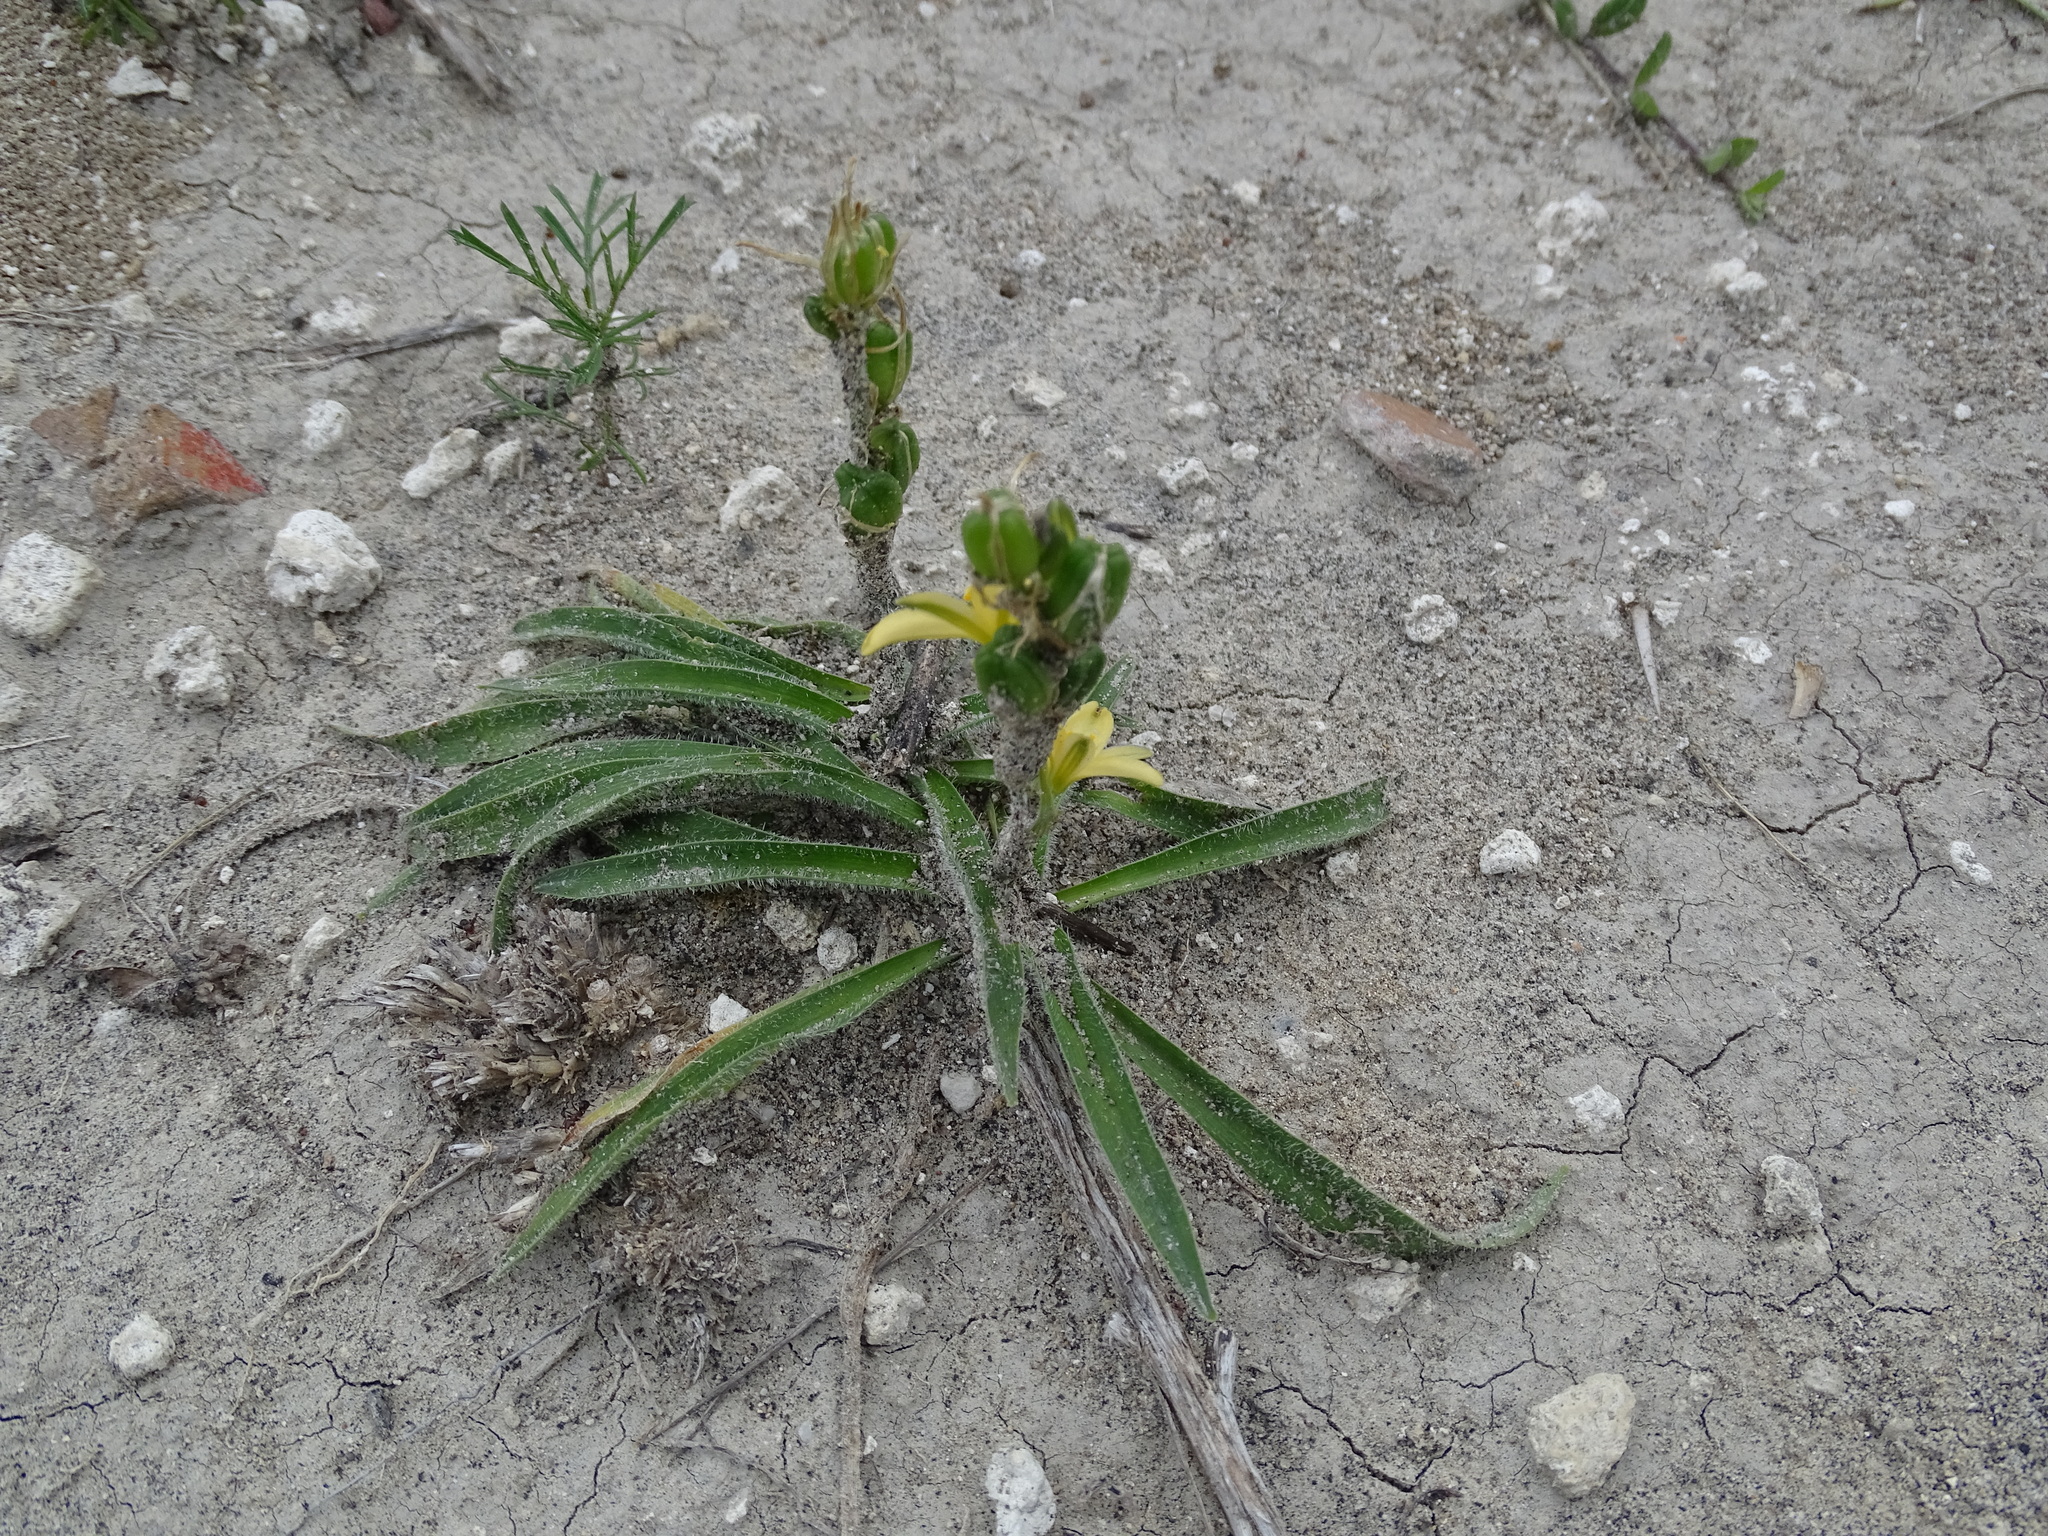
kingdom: Plantae
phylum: Tracheophyta
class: Liliopsida
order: Asparagales
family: Asparagaceae
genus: Echeandia
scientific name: Echeandia vestita
